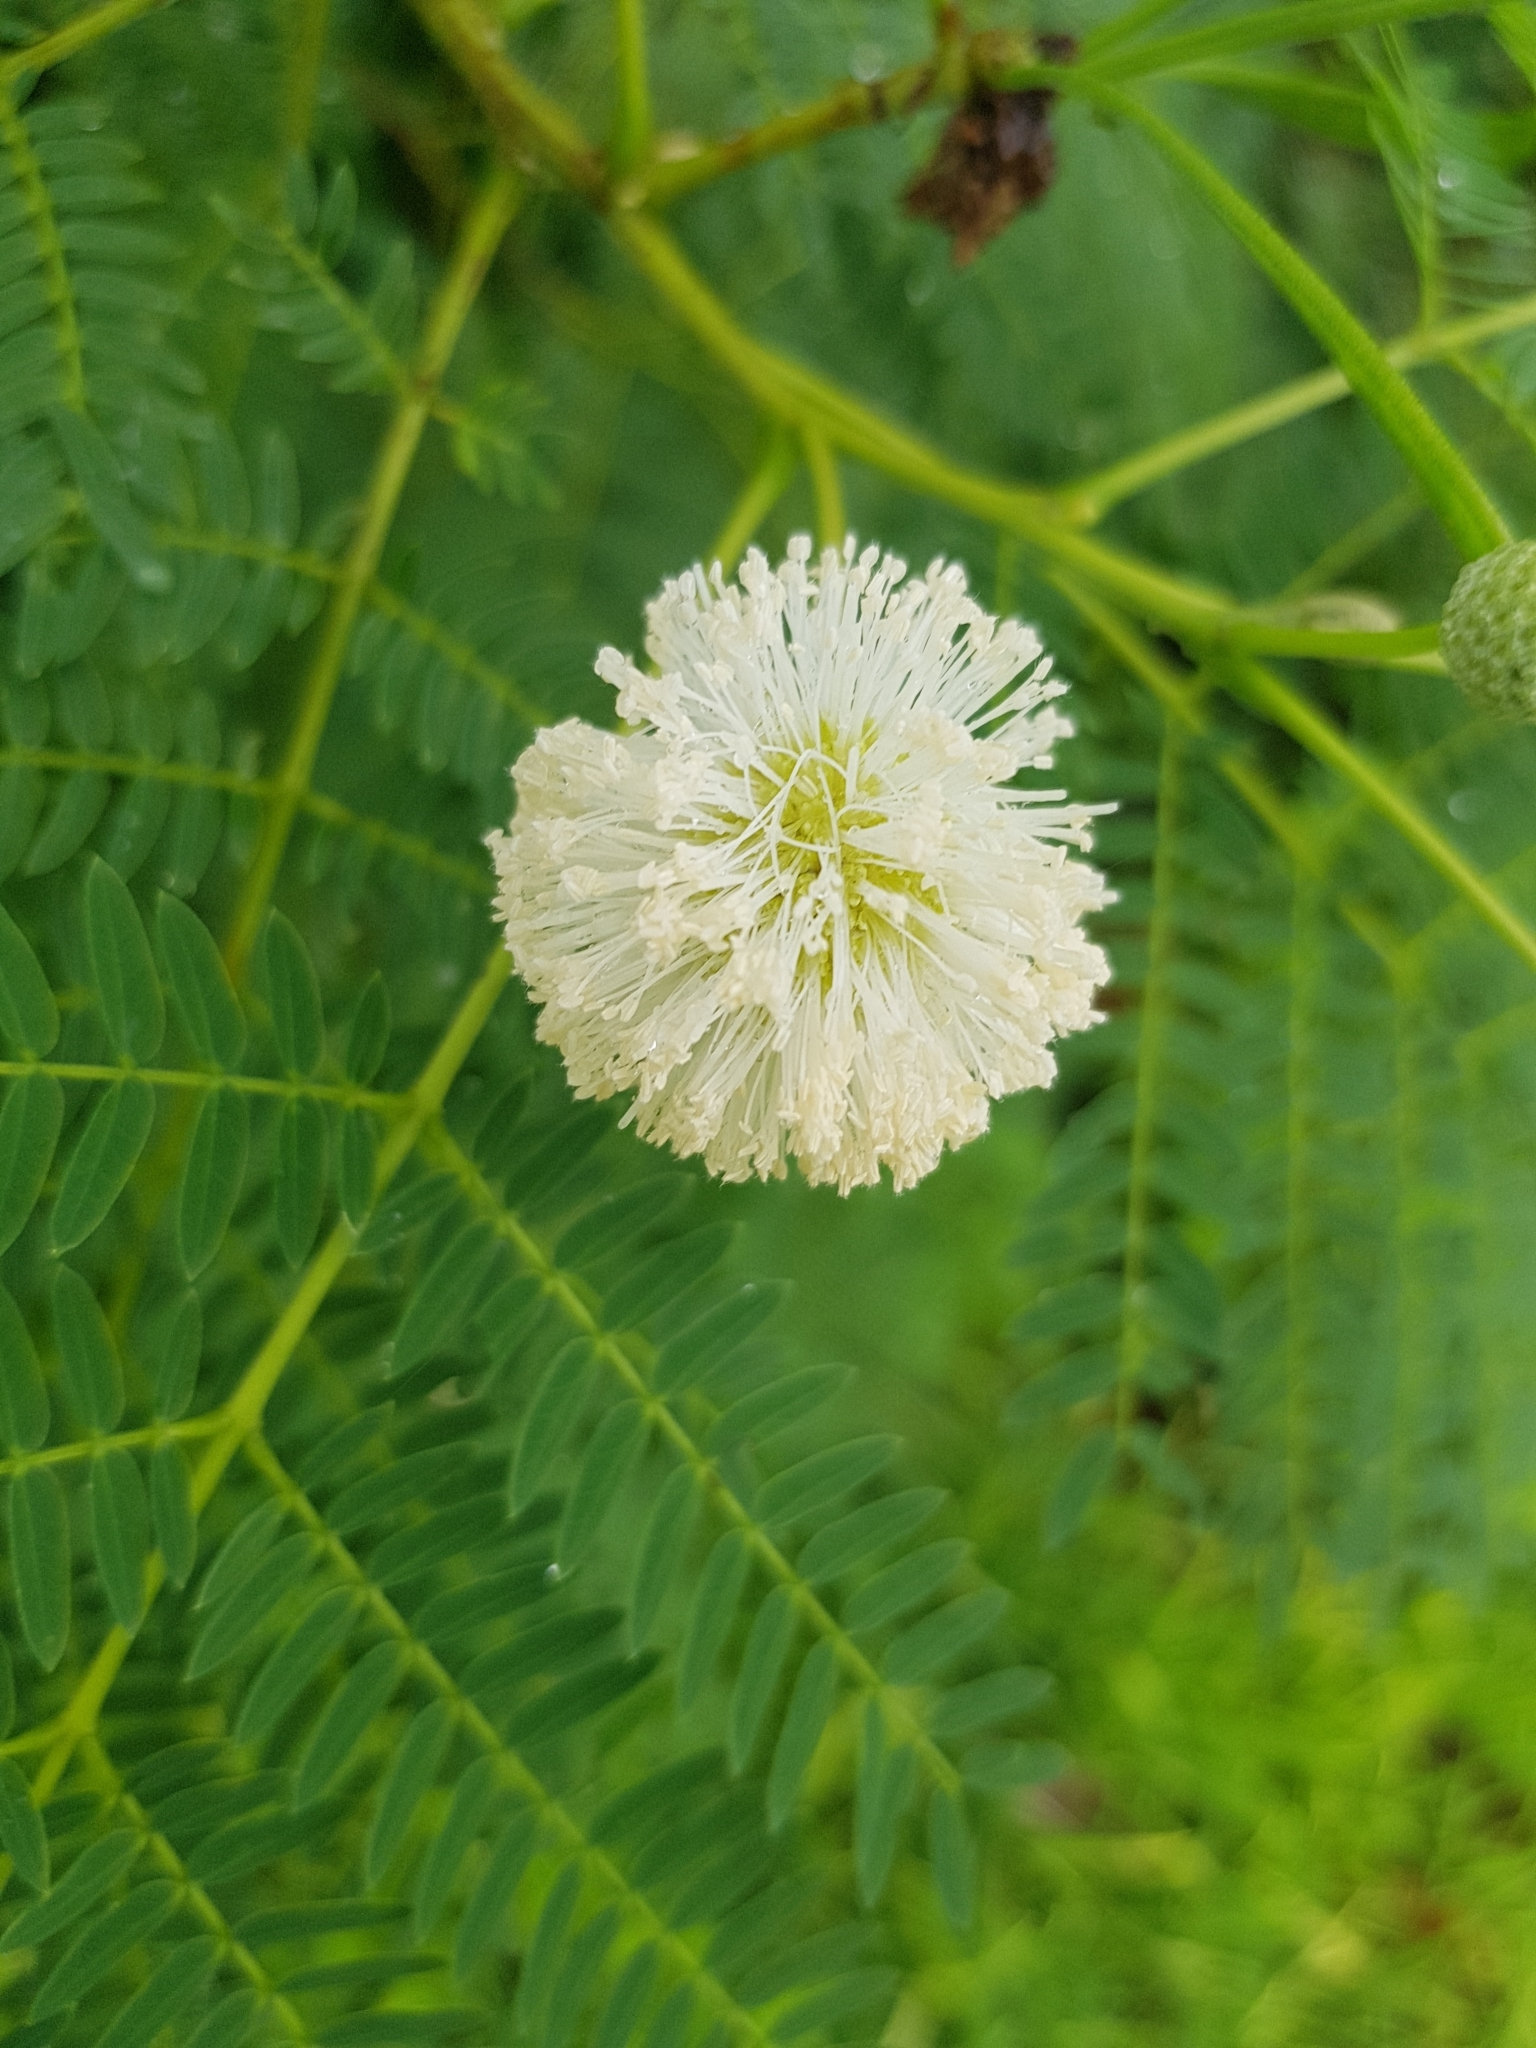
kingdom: Plantae
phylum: Tracheophyta
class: Magnoliopsida
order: Fabales
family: Fabaceae
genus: Leucaena
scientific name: Leucaena leucocephala
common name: White leadtree
